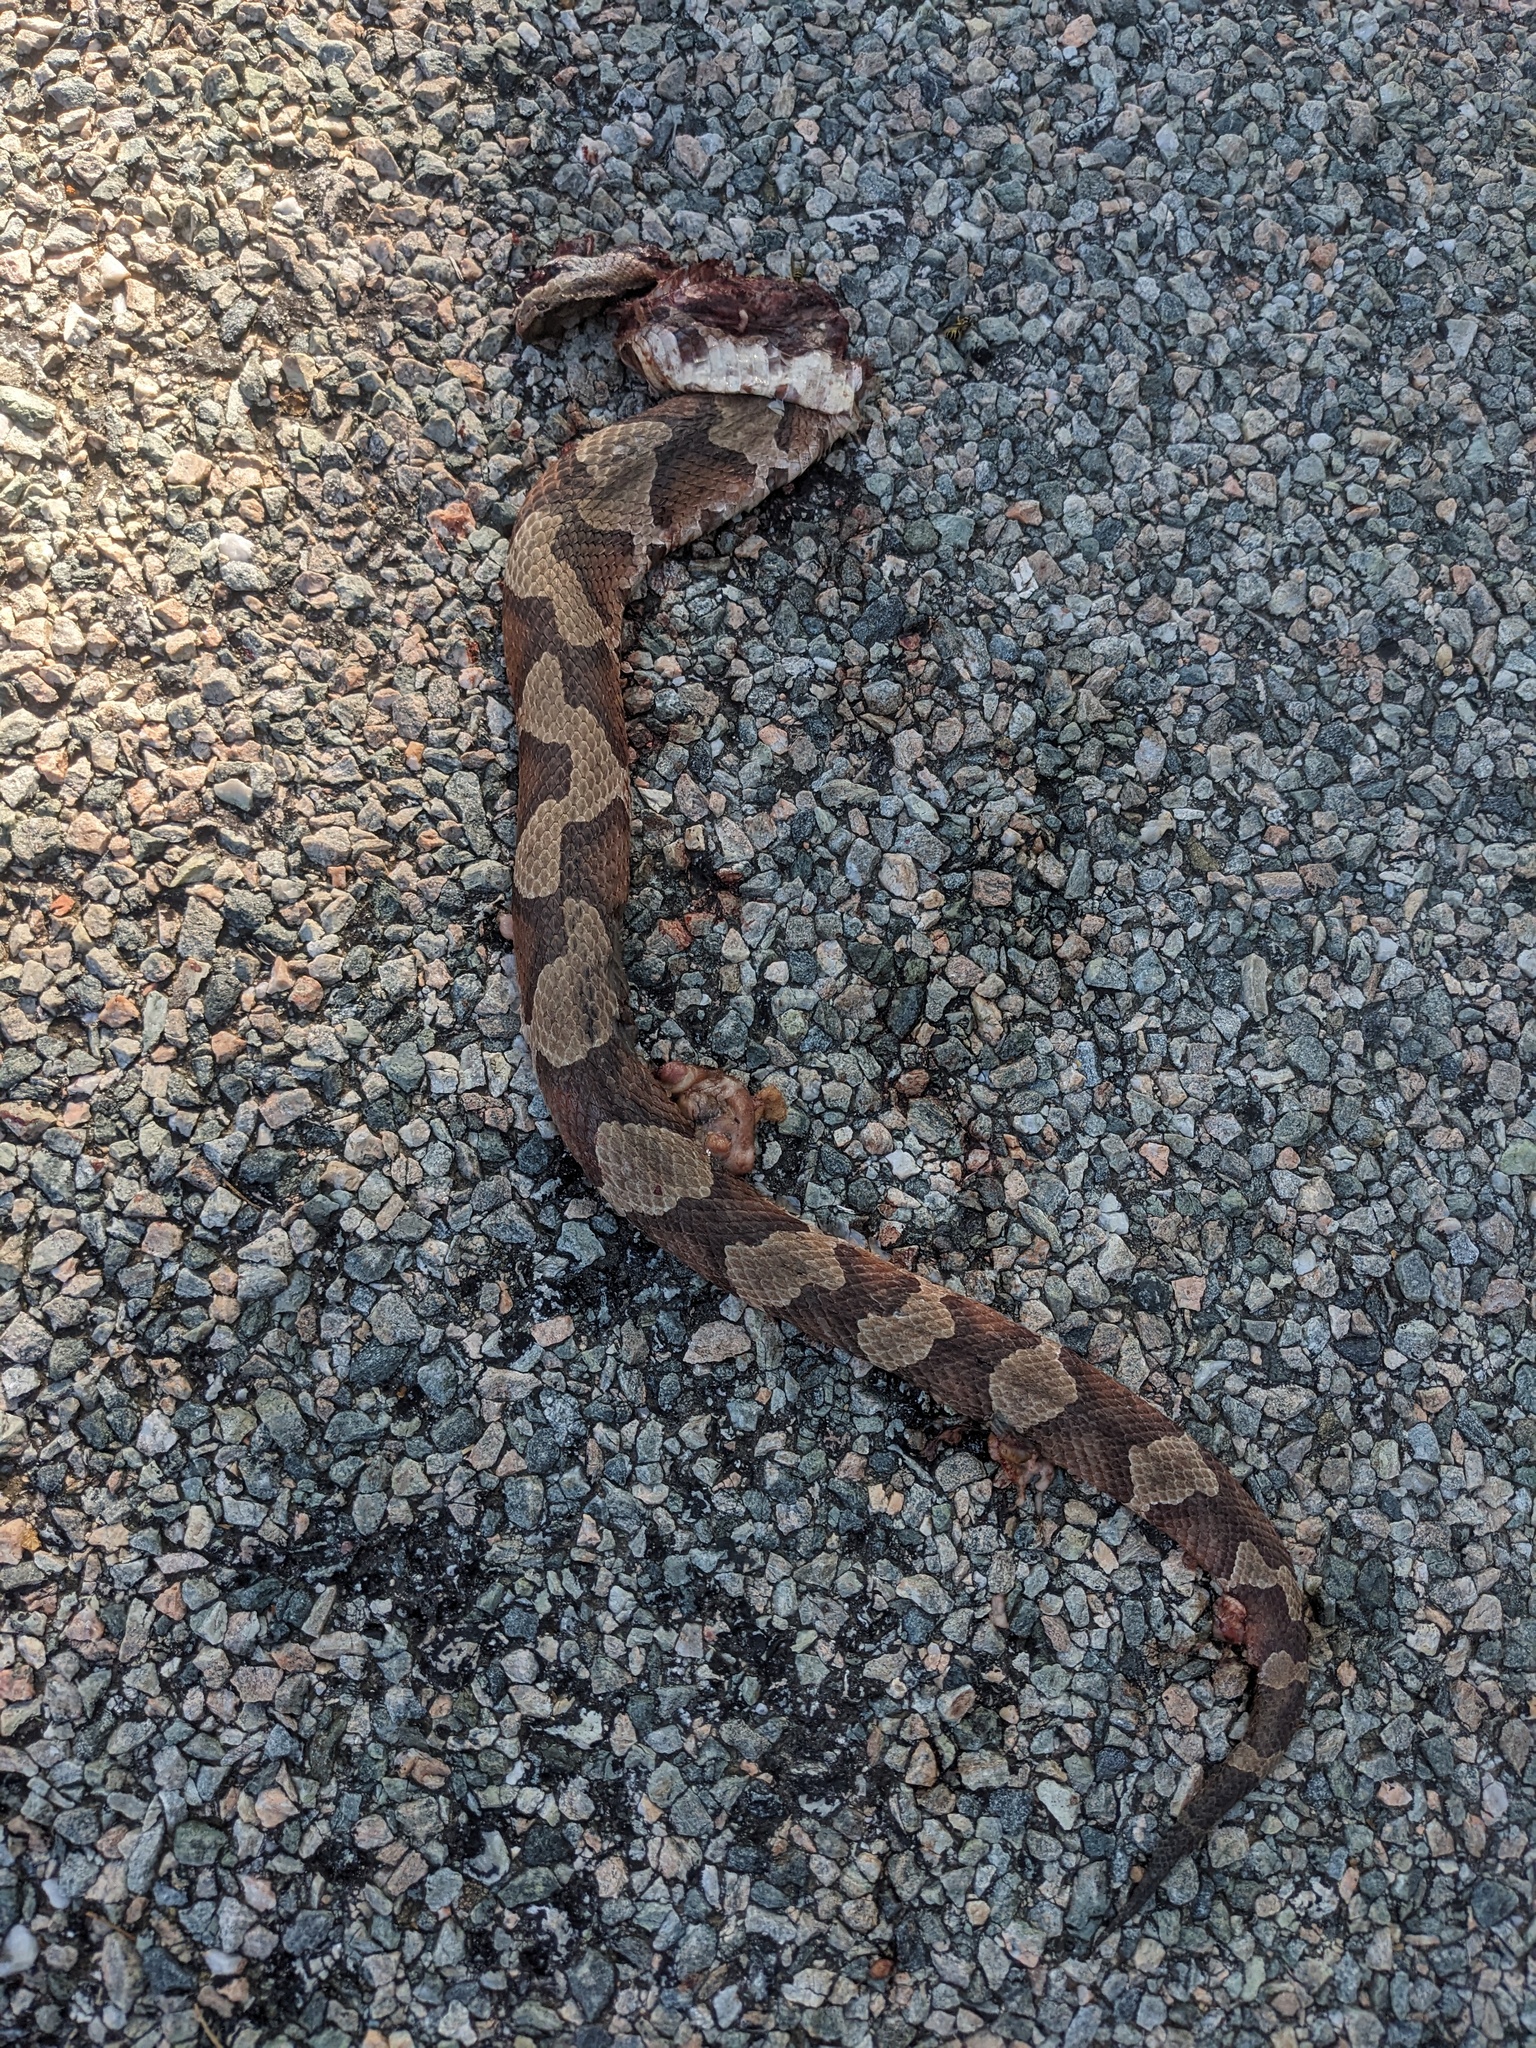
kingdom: Animalia
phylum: Chordata
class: Squamata
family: Viperidae
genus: Agkistrodon
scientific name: Agkistrodon contortrix
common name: Northern copperhead
